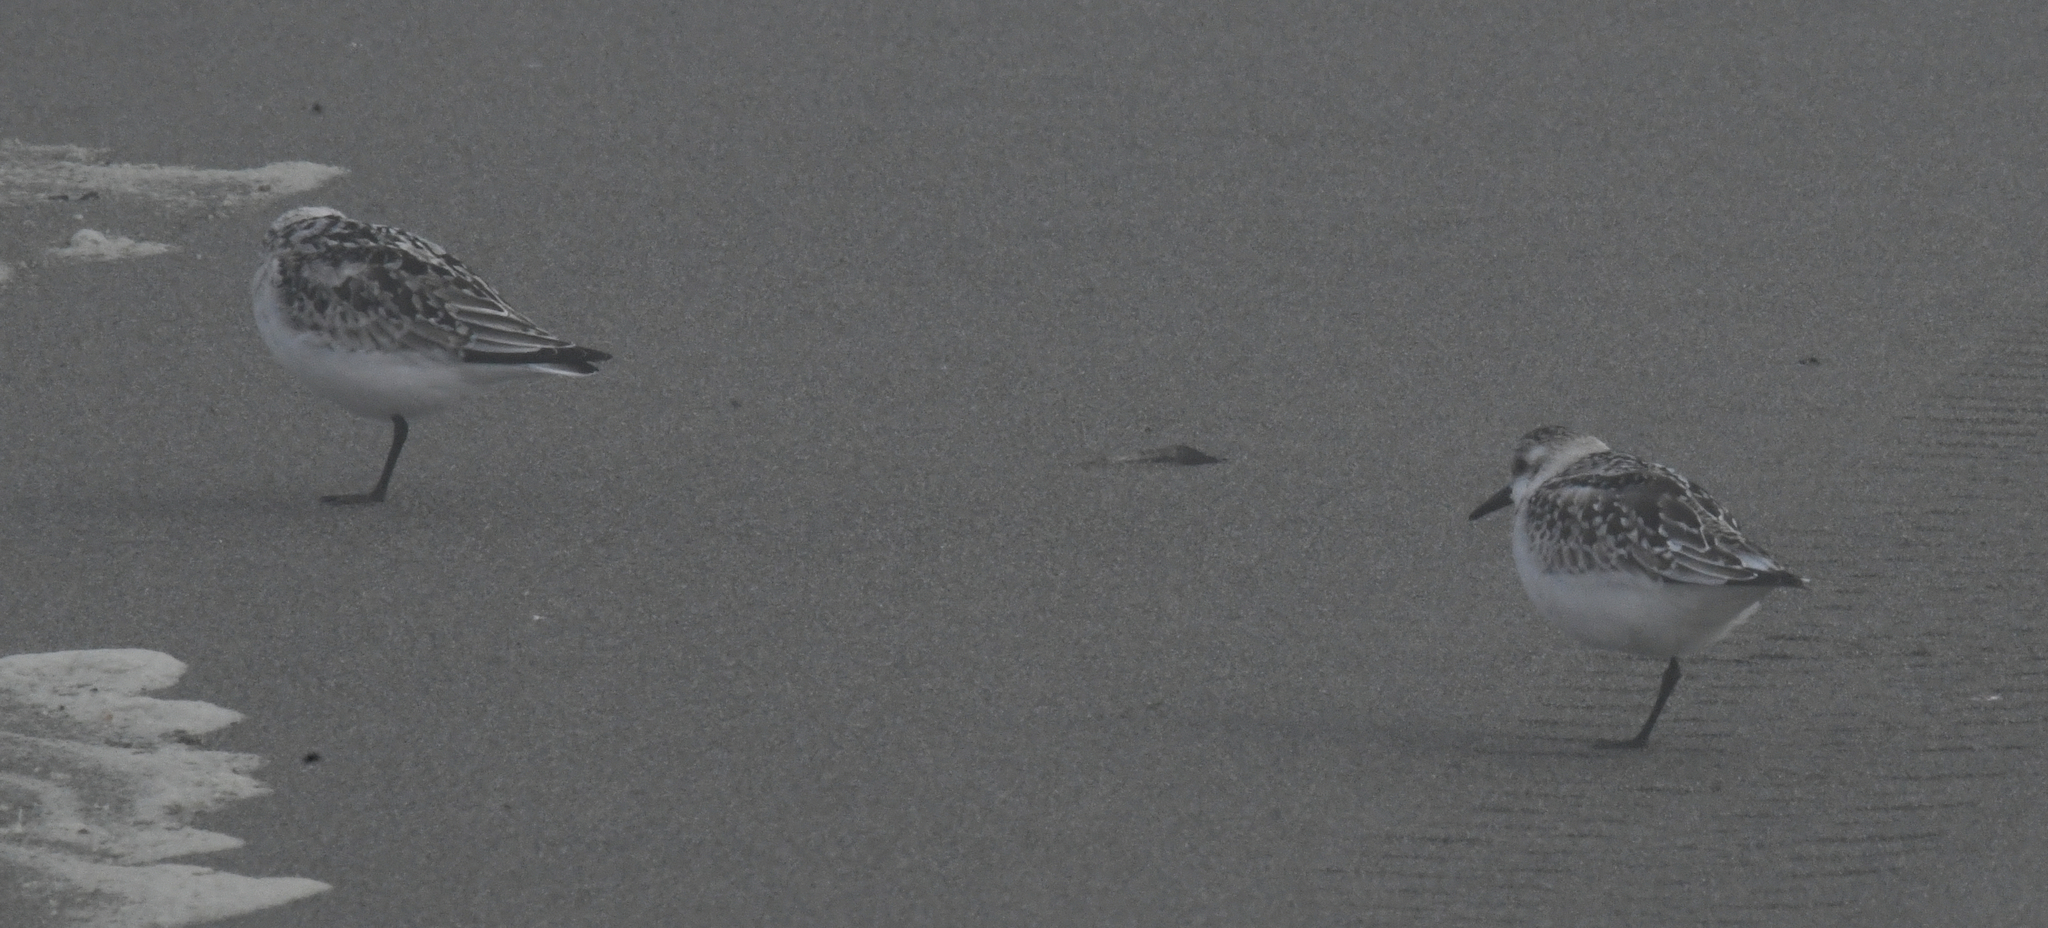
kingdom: Animalia
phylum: Chordata
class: Aves
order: Charadriiformes
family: Scolopacidae
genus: Calidris
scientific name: Calidris alba
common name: Sanderling
